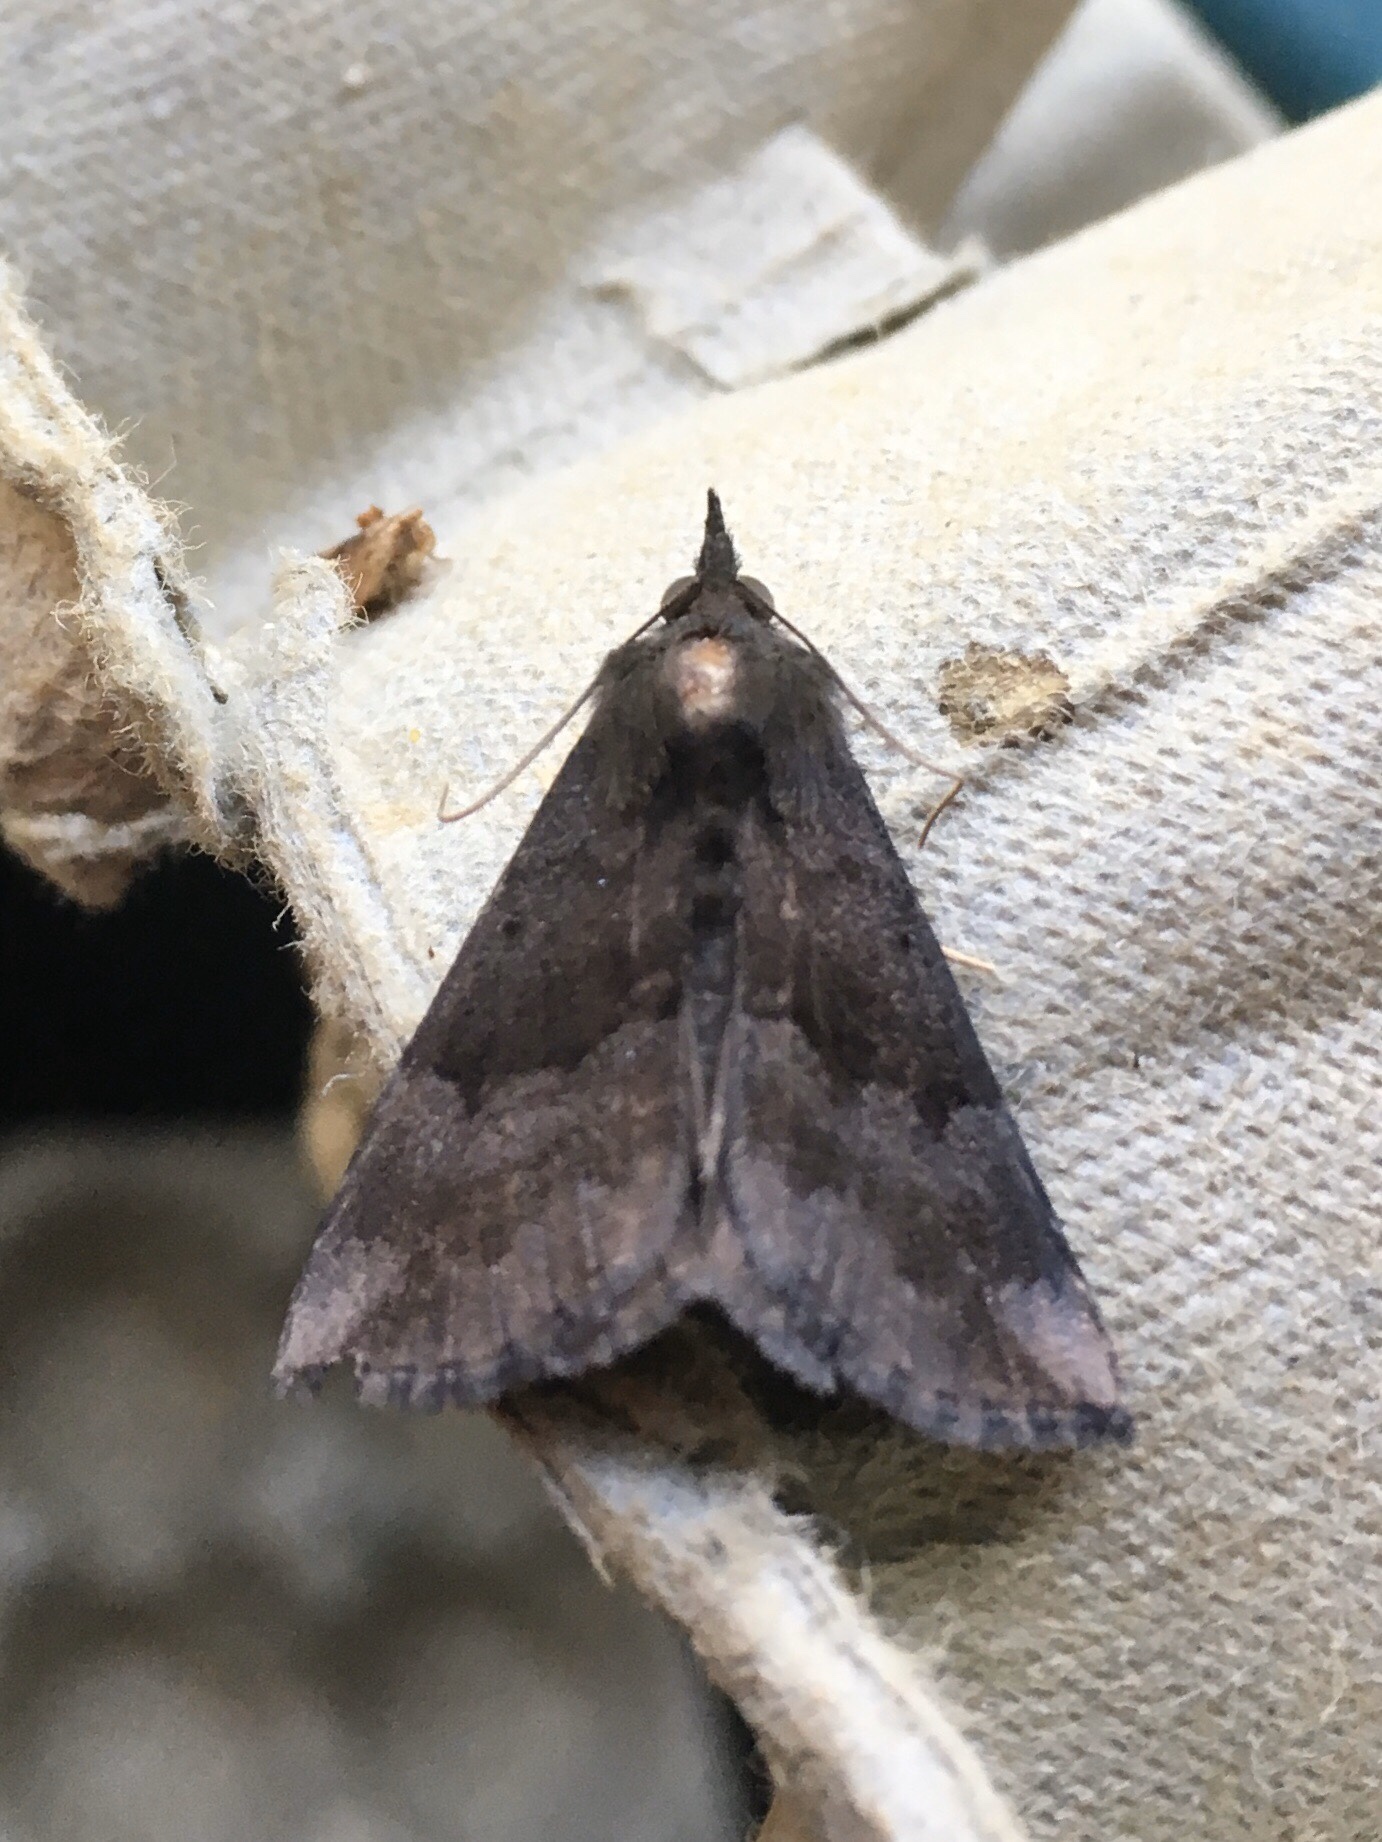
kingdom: Animalia
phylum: Arthropoda
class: Insecta
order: Lepidoptera
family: Erebidae
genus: Hypena
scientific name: Hypena madefactalis
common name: Gray-edged snout
